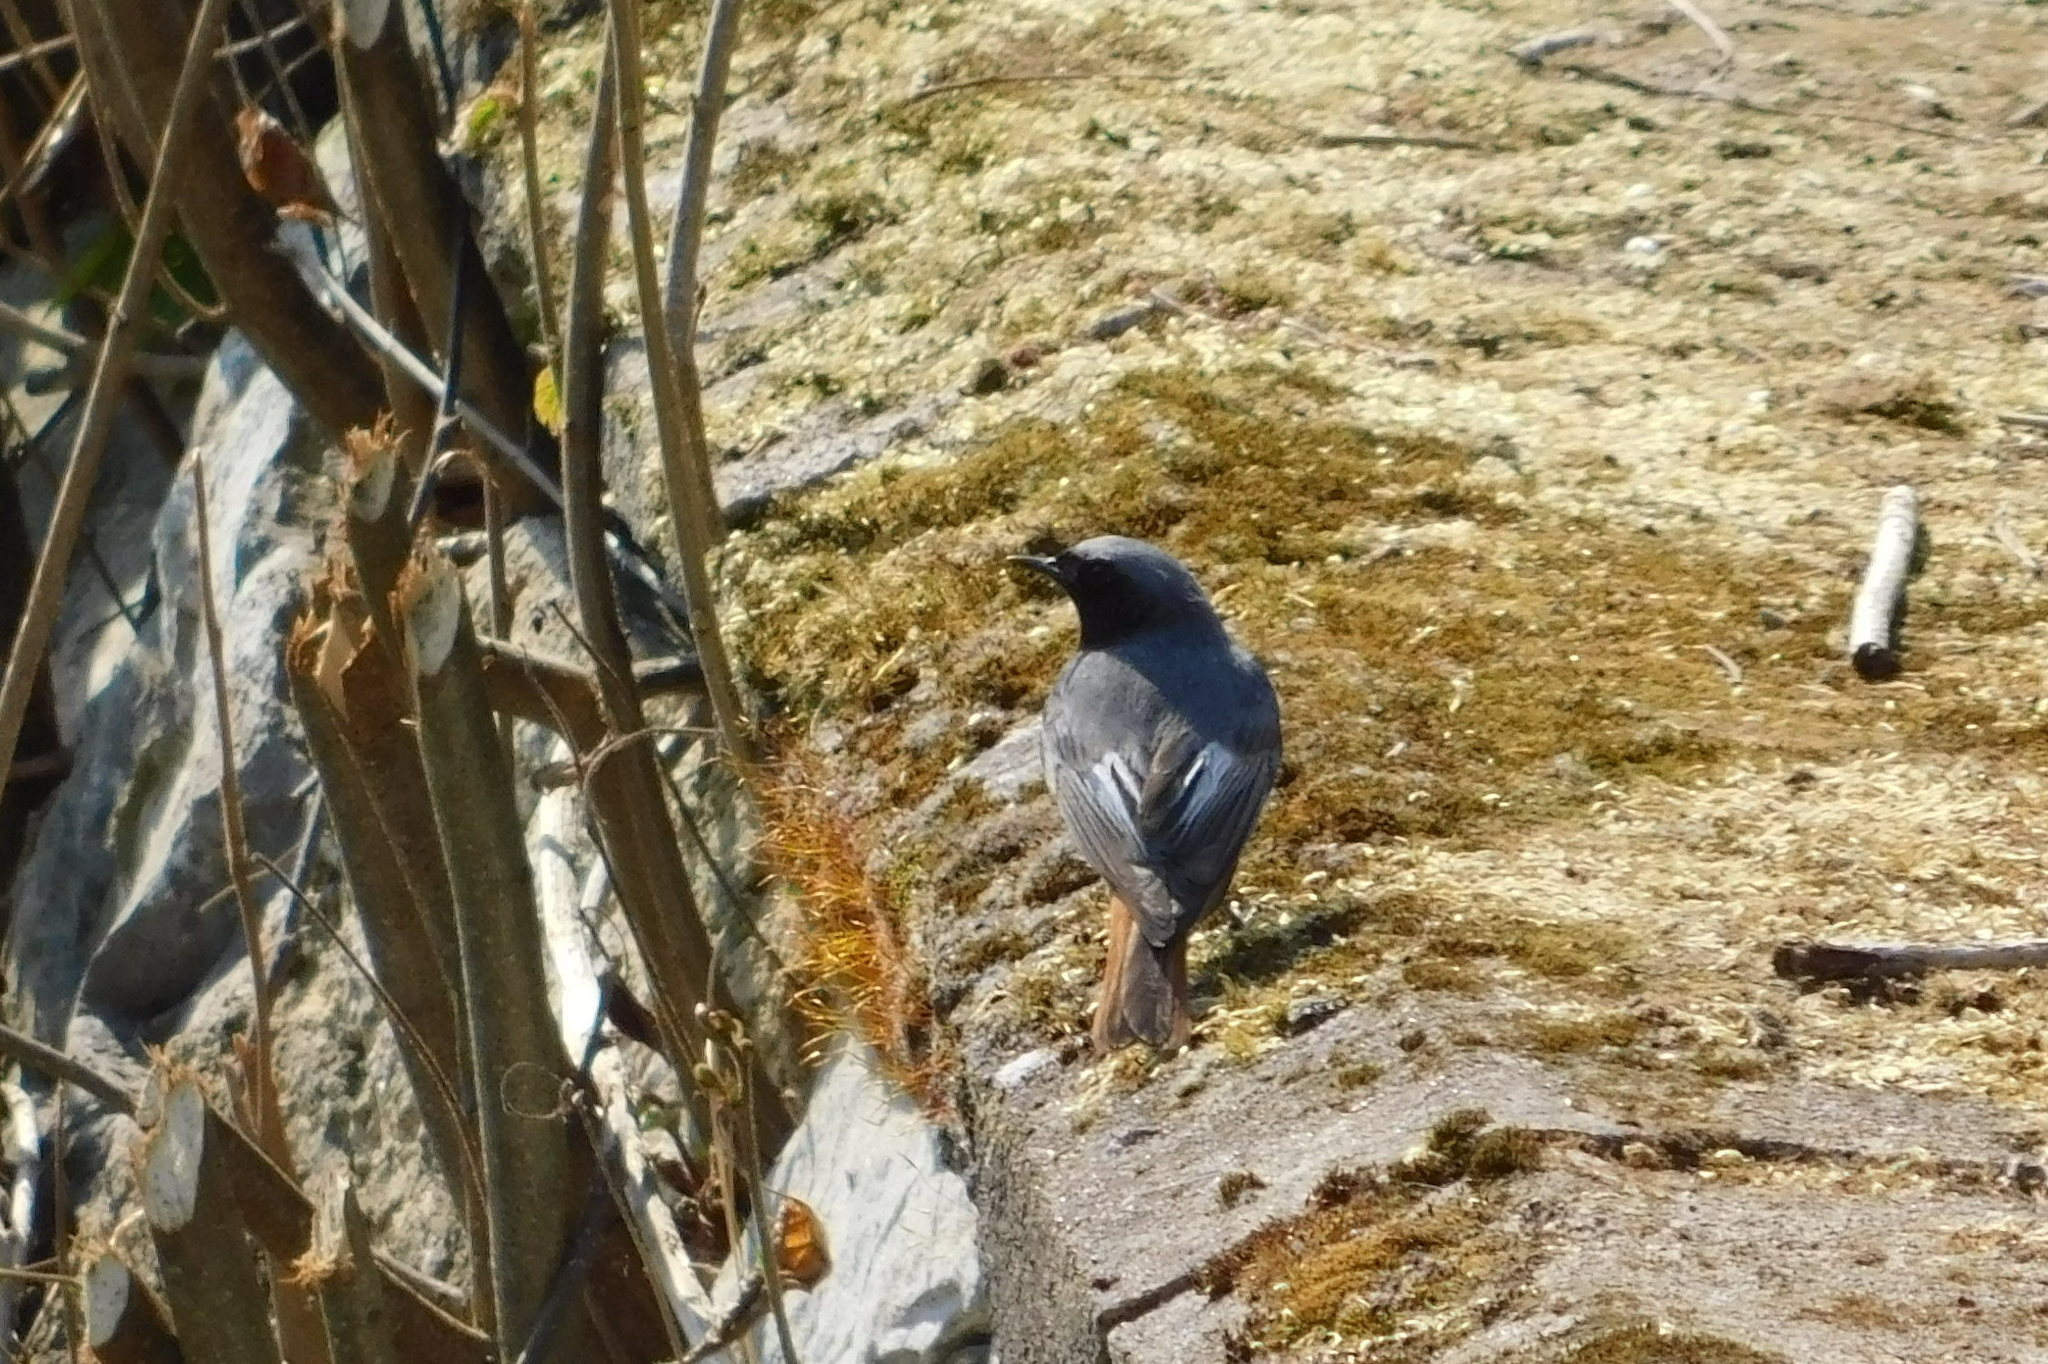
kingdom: Animalia
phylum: Chordata
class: Aves
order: Passeriformes
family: Muscicapidae
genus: Phoenicurus
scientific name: Phoenicurus ochruros
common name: Black redstart
